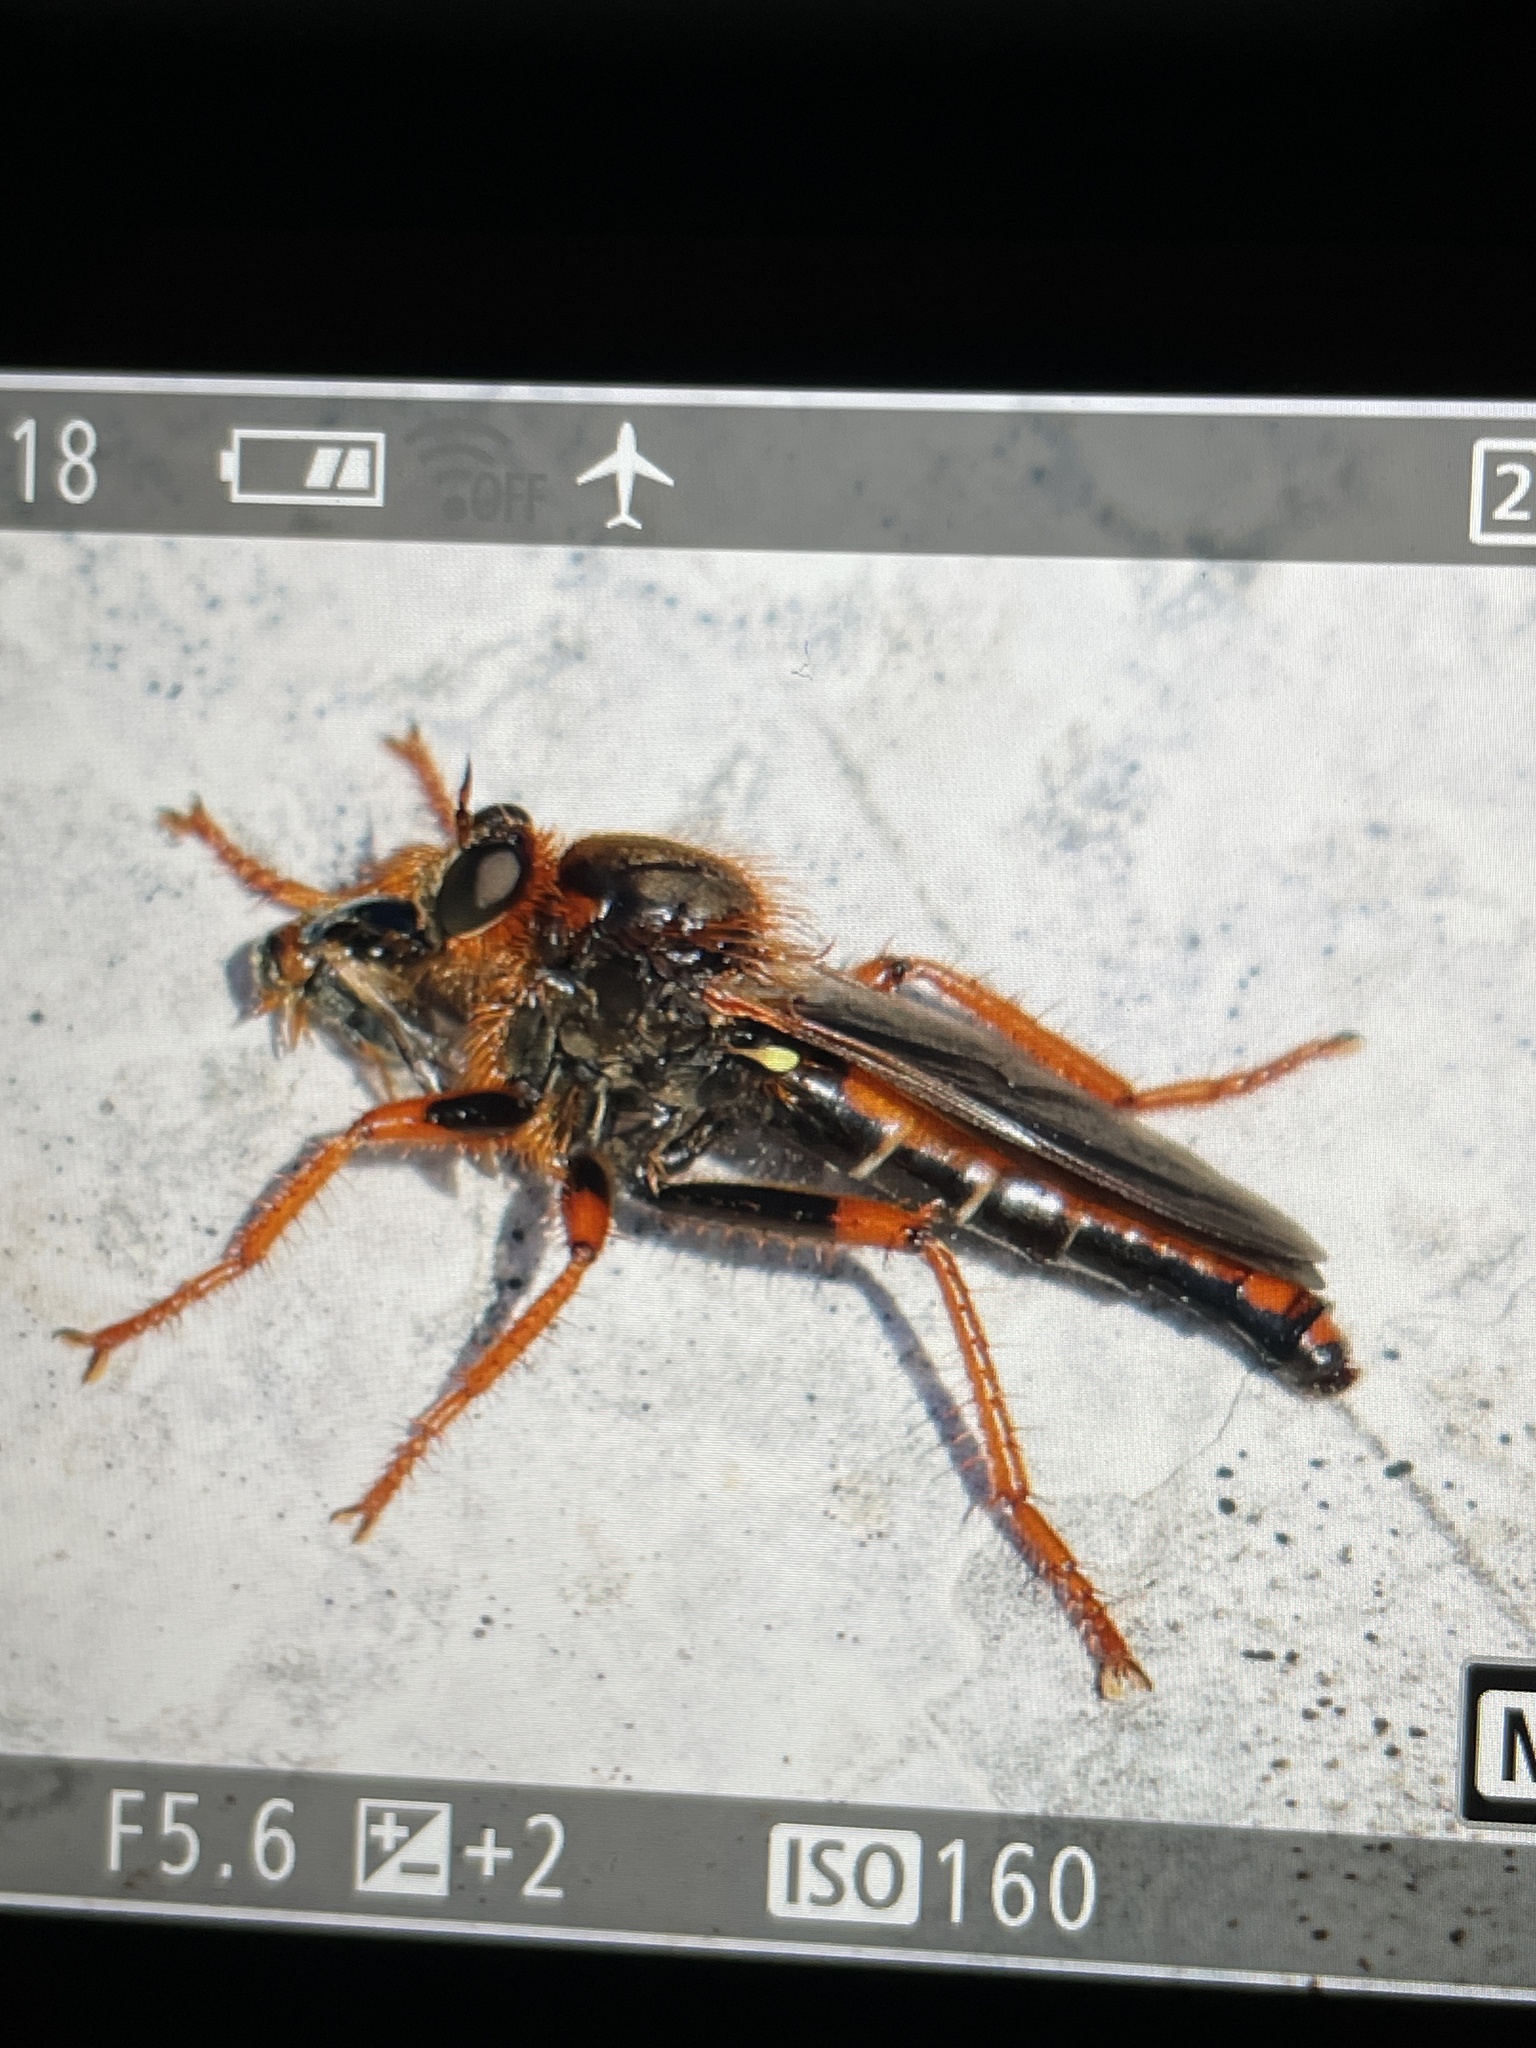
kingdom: Animalia
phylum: Arthropoda
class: Insecta
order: Diptera
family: Asilidae
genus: Stenopogon
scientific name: Stenopogon xanthotrichus
